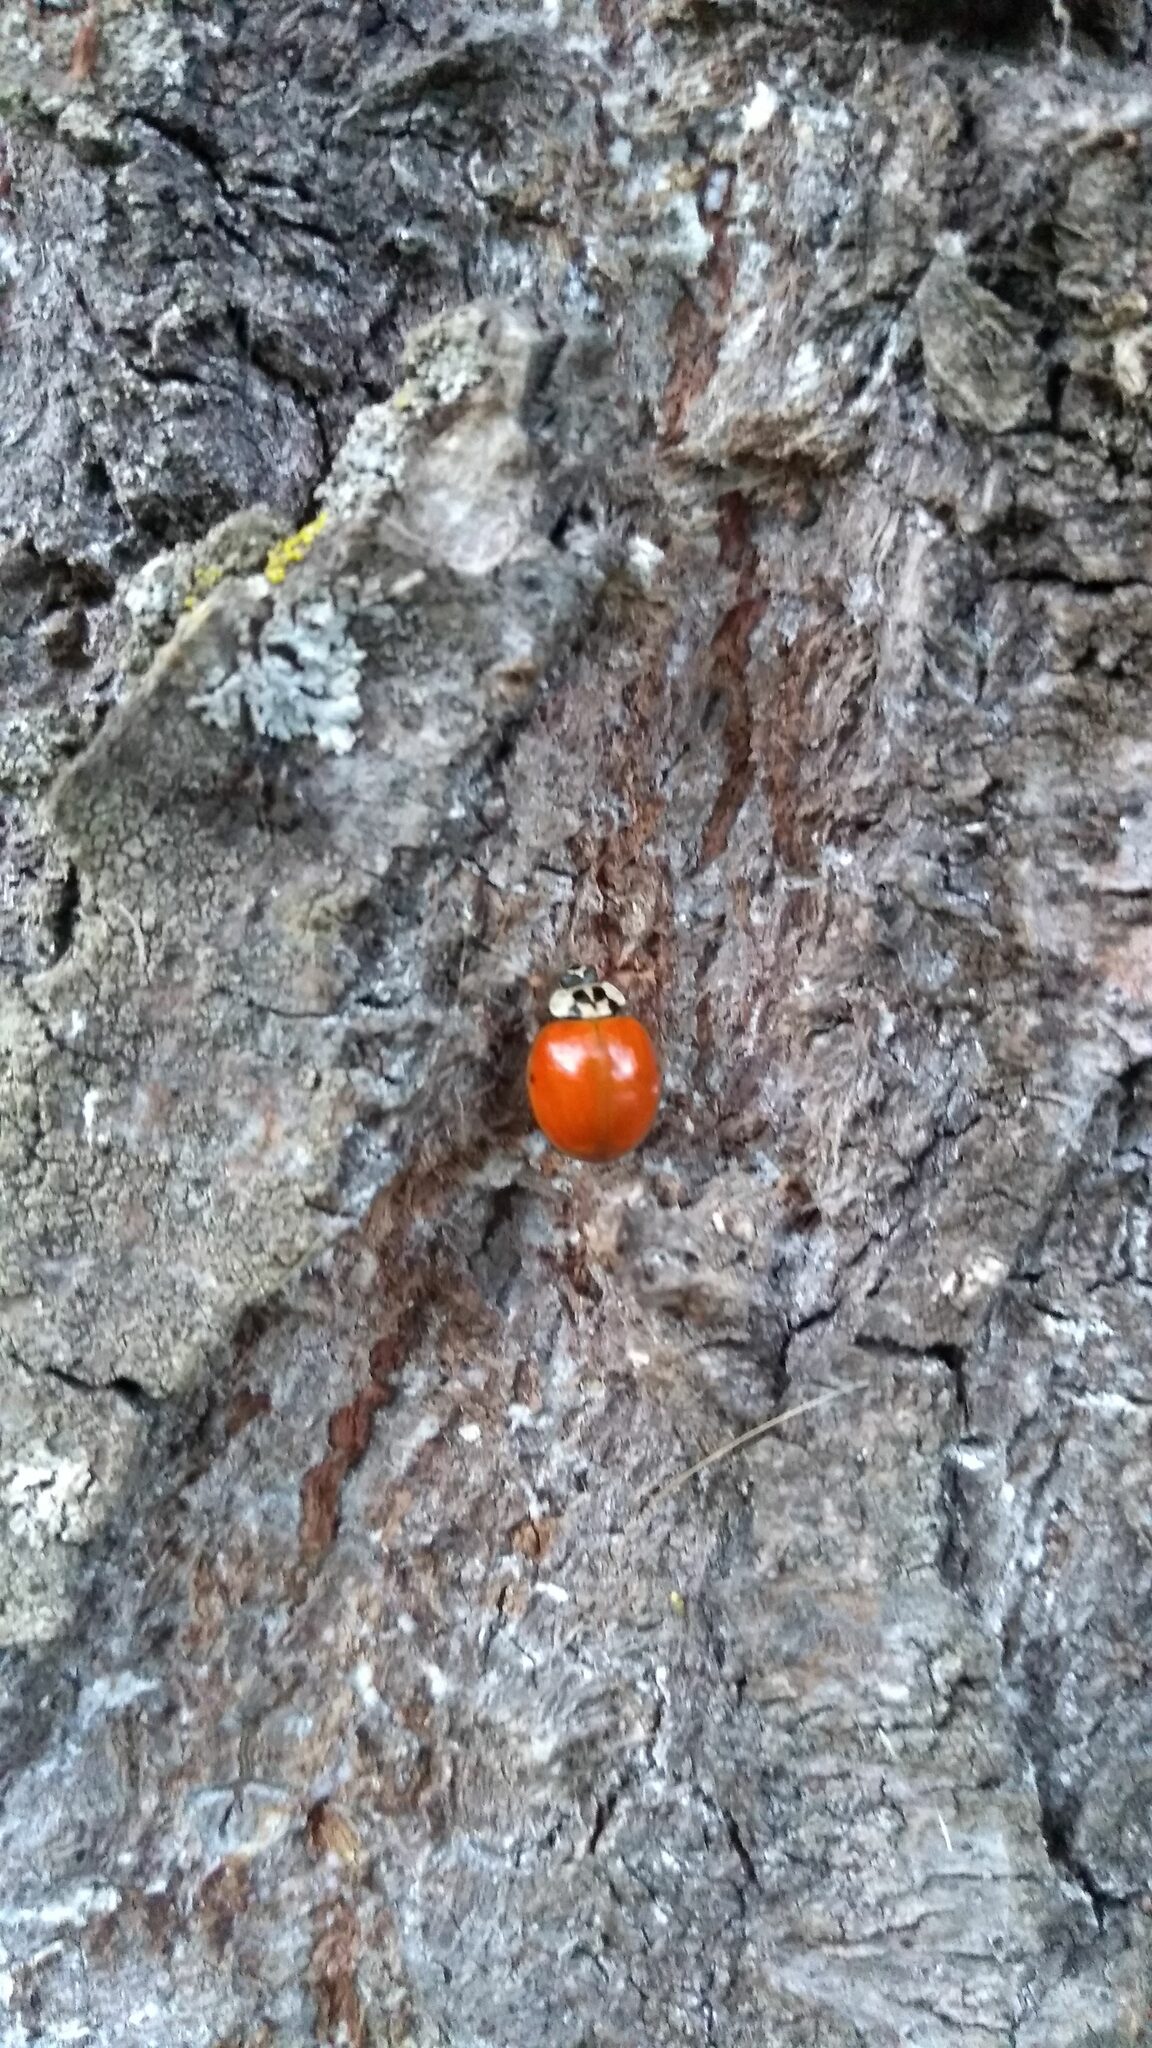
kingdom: Animalia
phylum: Arthropoda
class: Insecta
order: Coleoptera
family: Coccinellidae
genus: Harmonia
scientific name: Harmonia axyridis
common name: Harlequin ladybird
